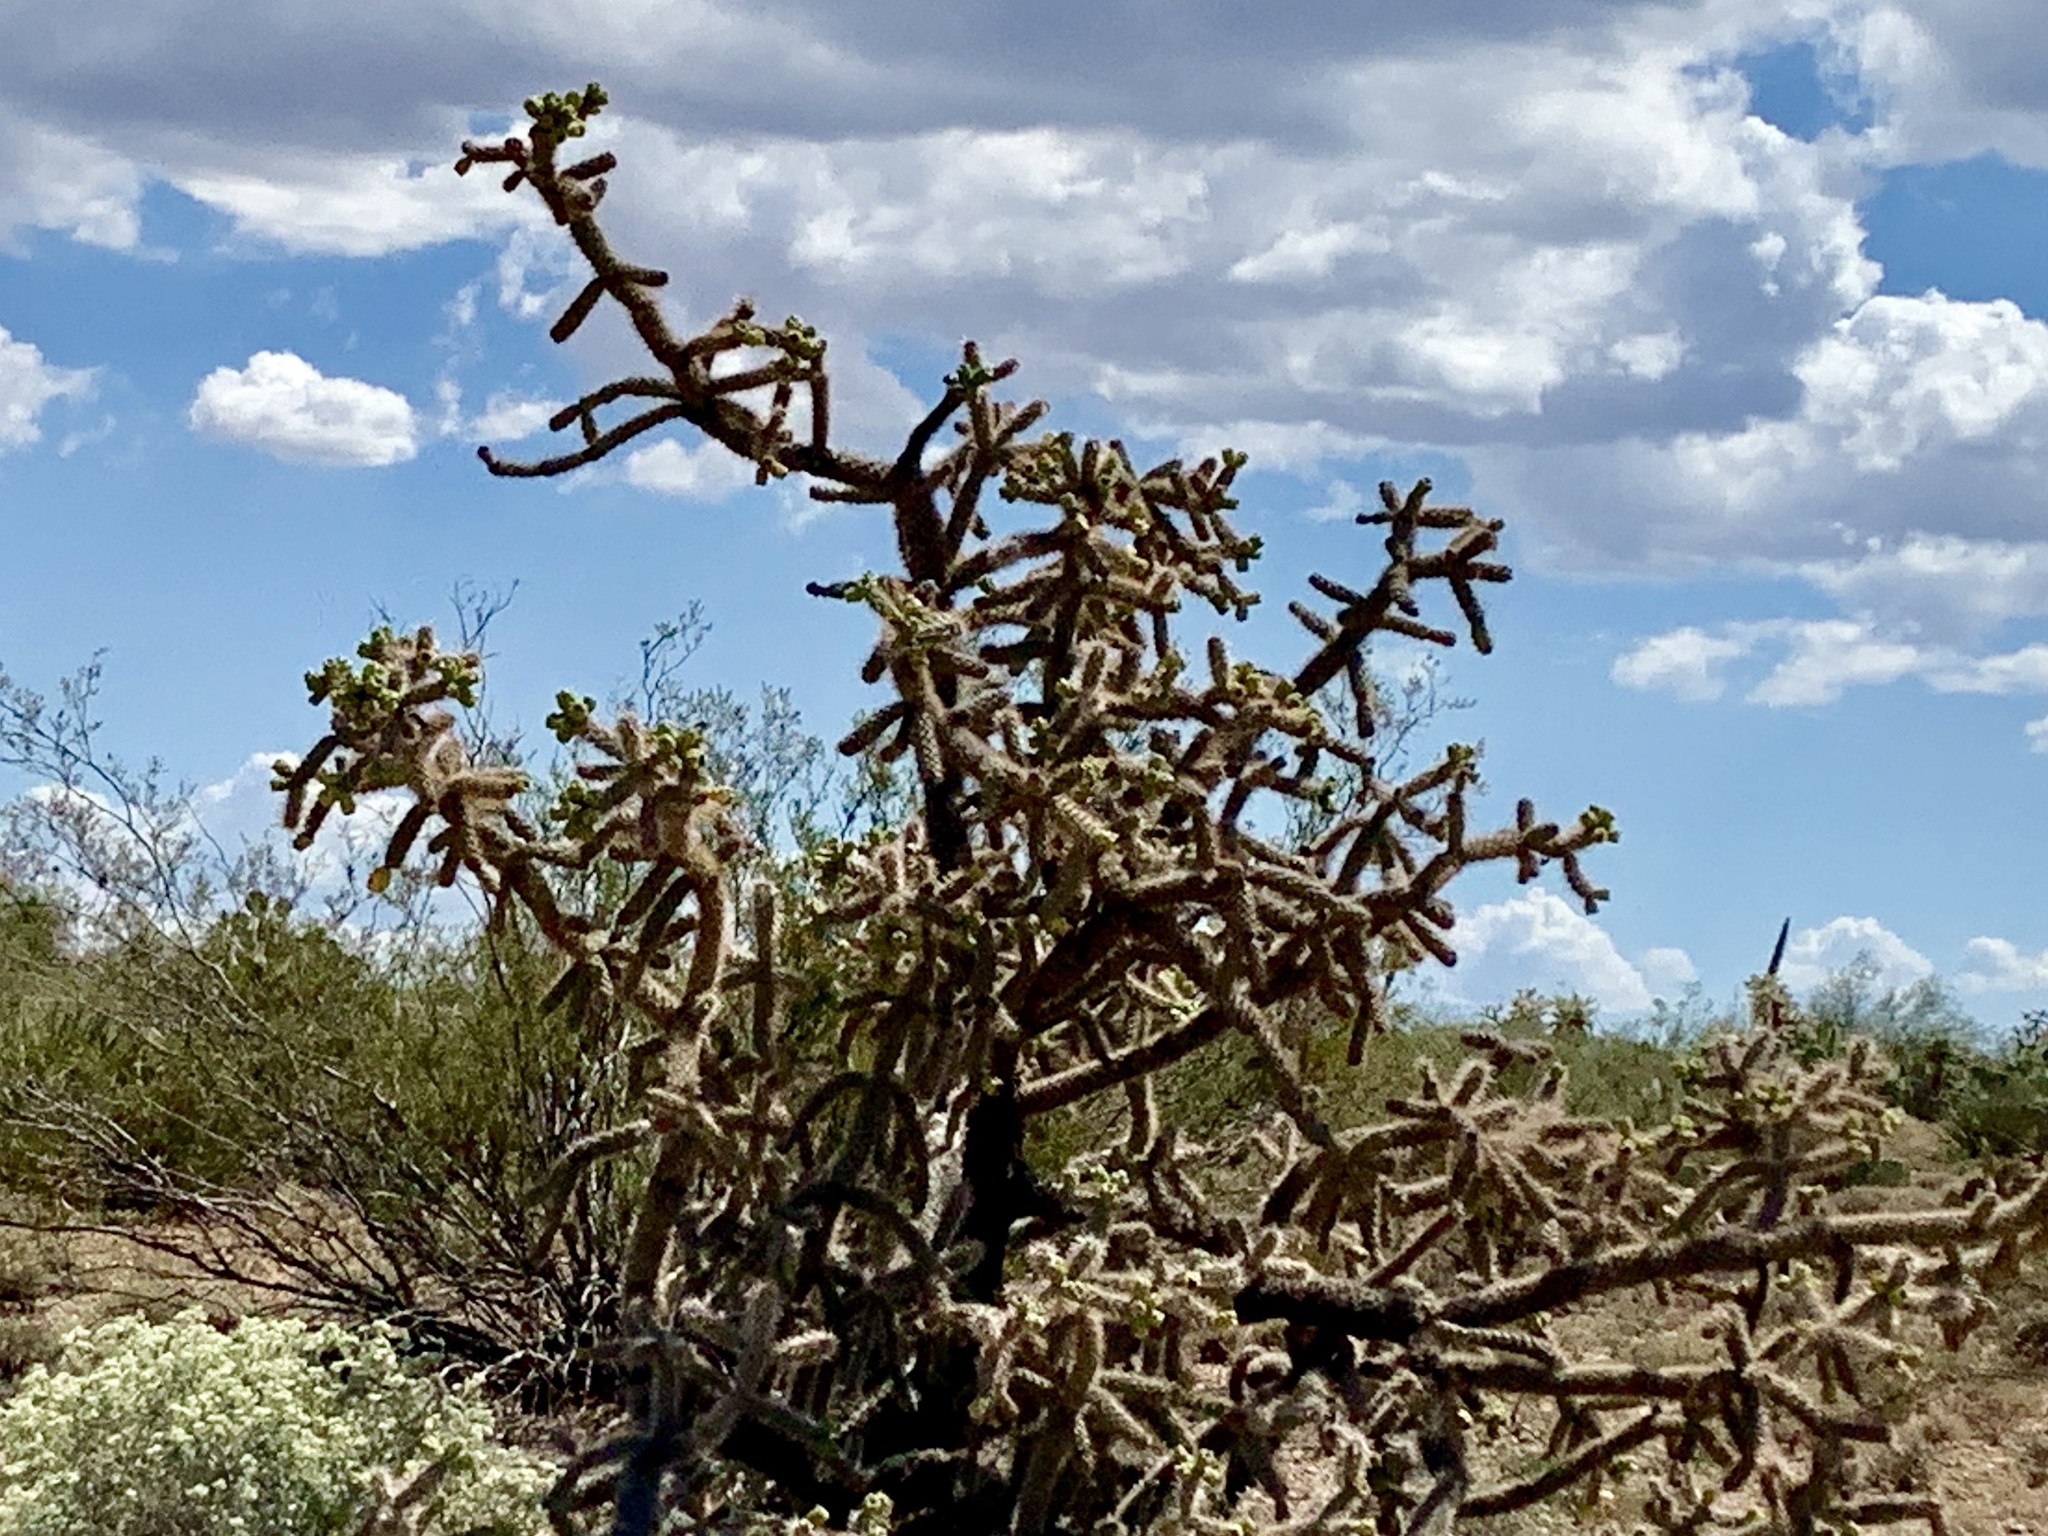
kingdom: Plantae
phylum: Tracheophyta
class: Magnoliopsida
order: Caryophyllales
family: Cactaceae
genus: Cylindropuntia
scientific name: Cylindropuntia imbricata
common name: Candelabrum cactus
